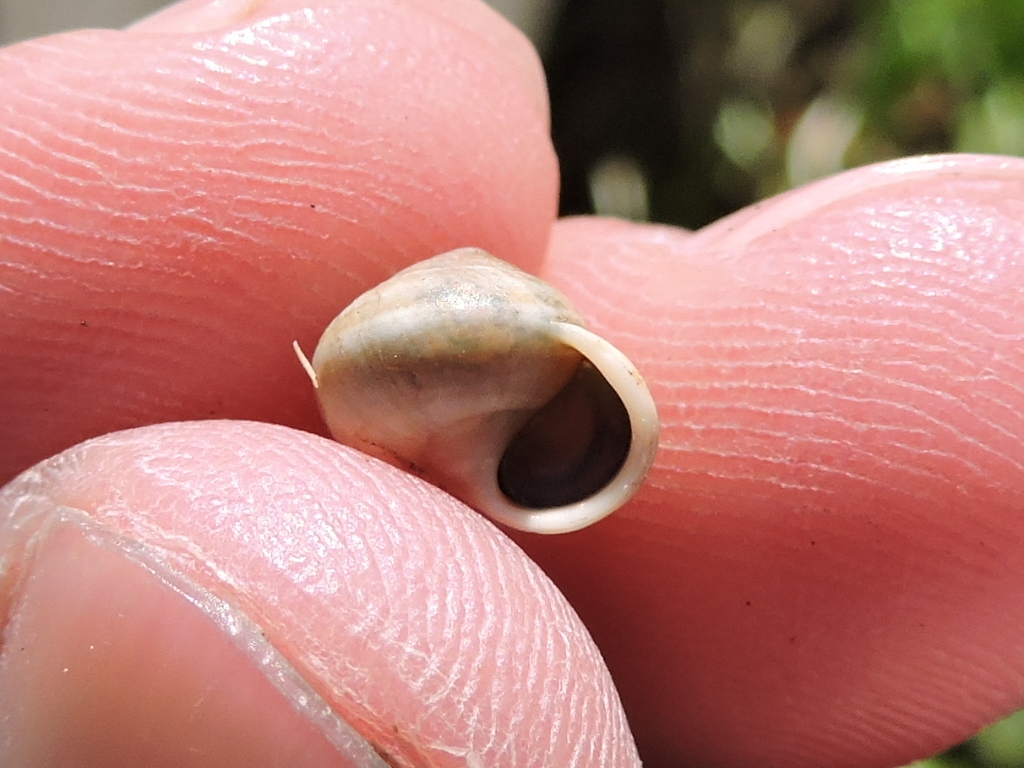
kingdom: Animalia
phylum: Mollusca
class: Gastropoda
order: Cycloneritida
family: Helicinidae
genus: Helicina
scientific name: Helicina orbiculata
